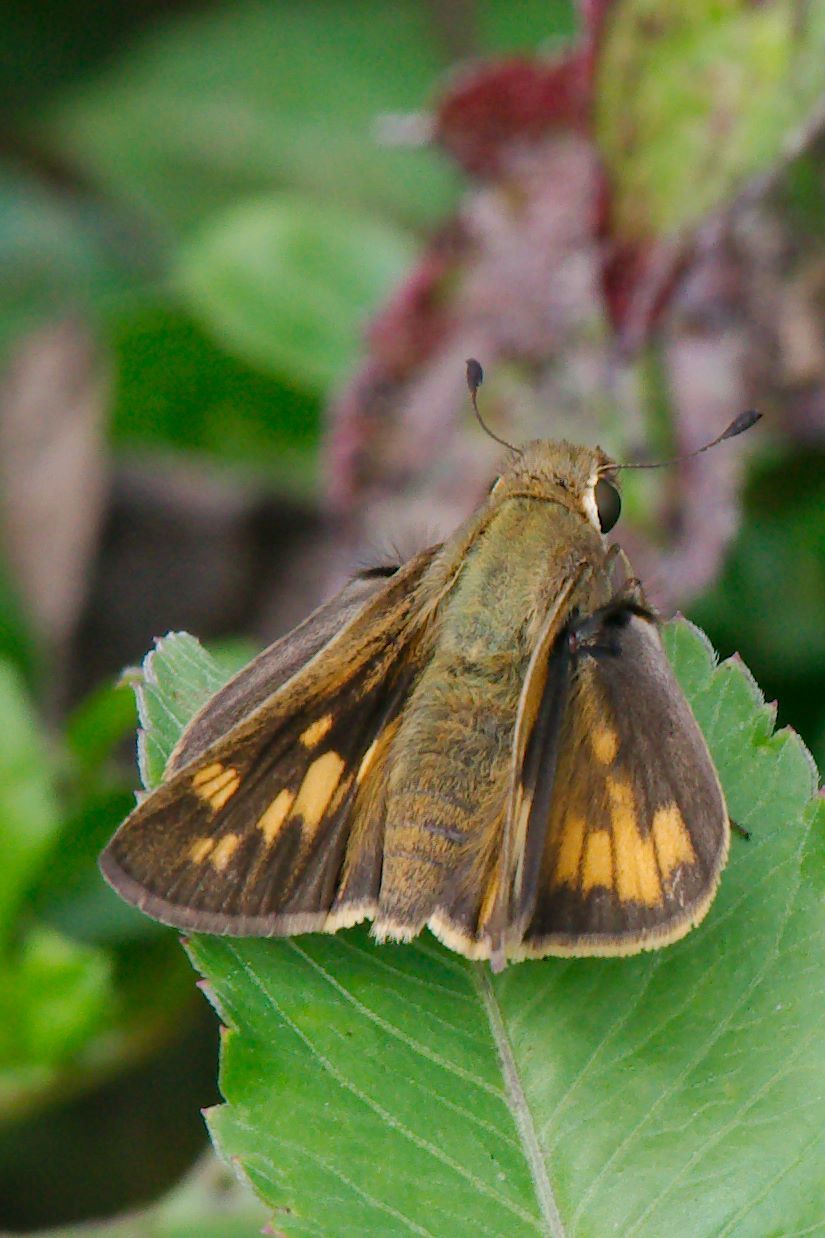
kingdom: Animalia
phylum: Arthropoda
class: Insecta
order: Lepidoptera
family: Hesperiidae
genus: Hylephila
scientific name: Hylephila phyleus
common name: Fiery skipper
